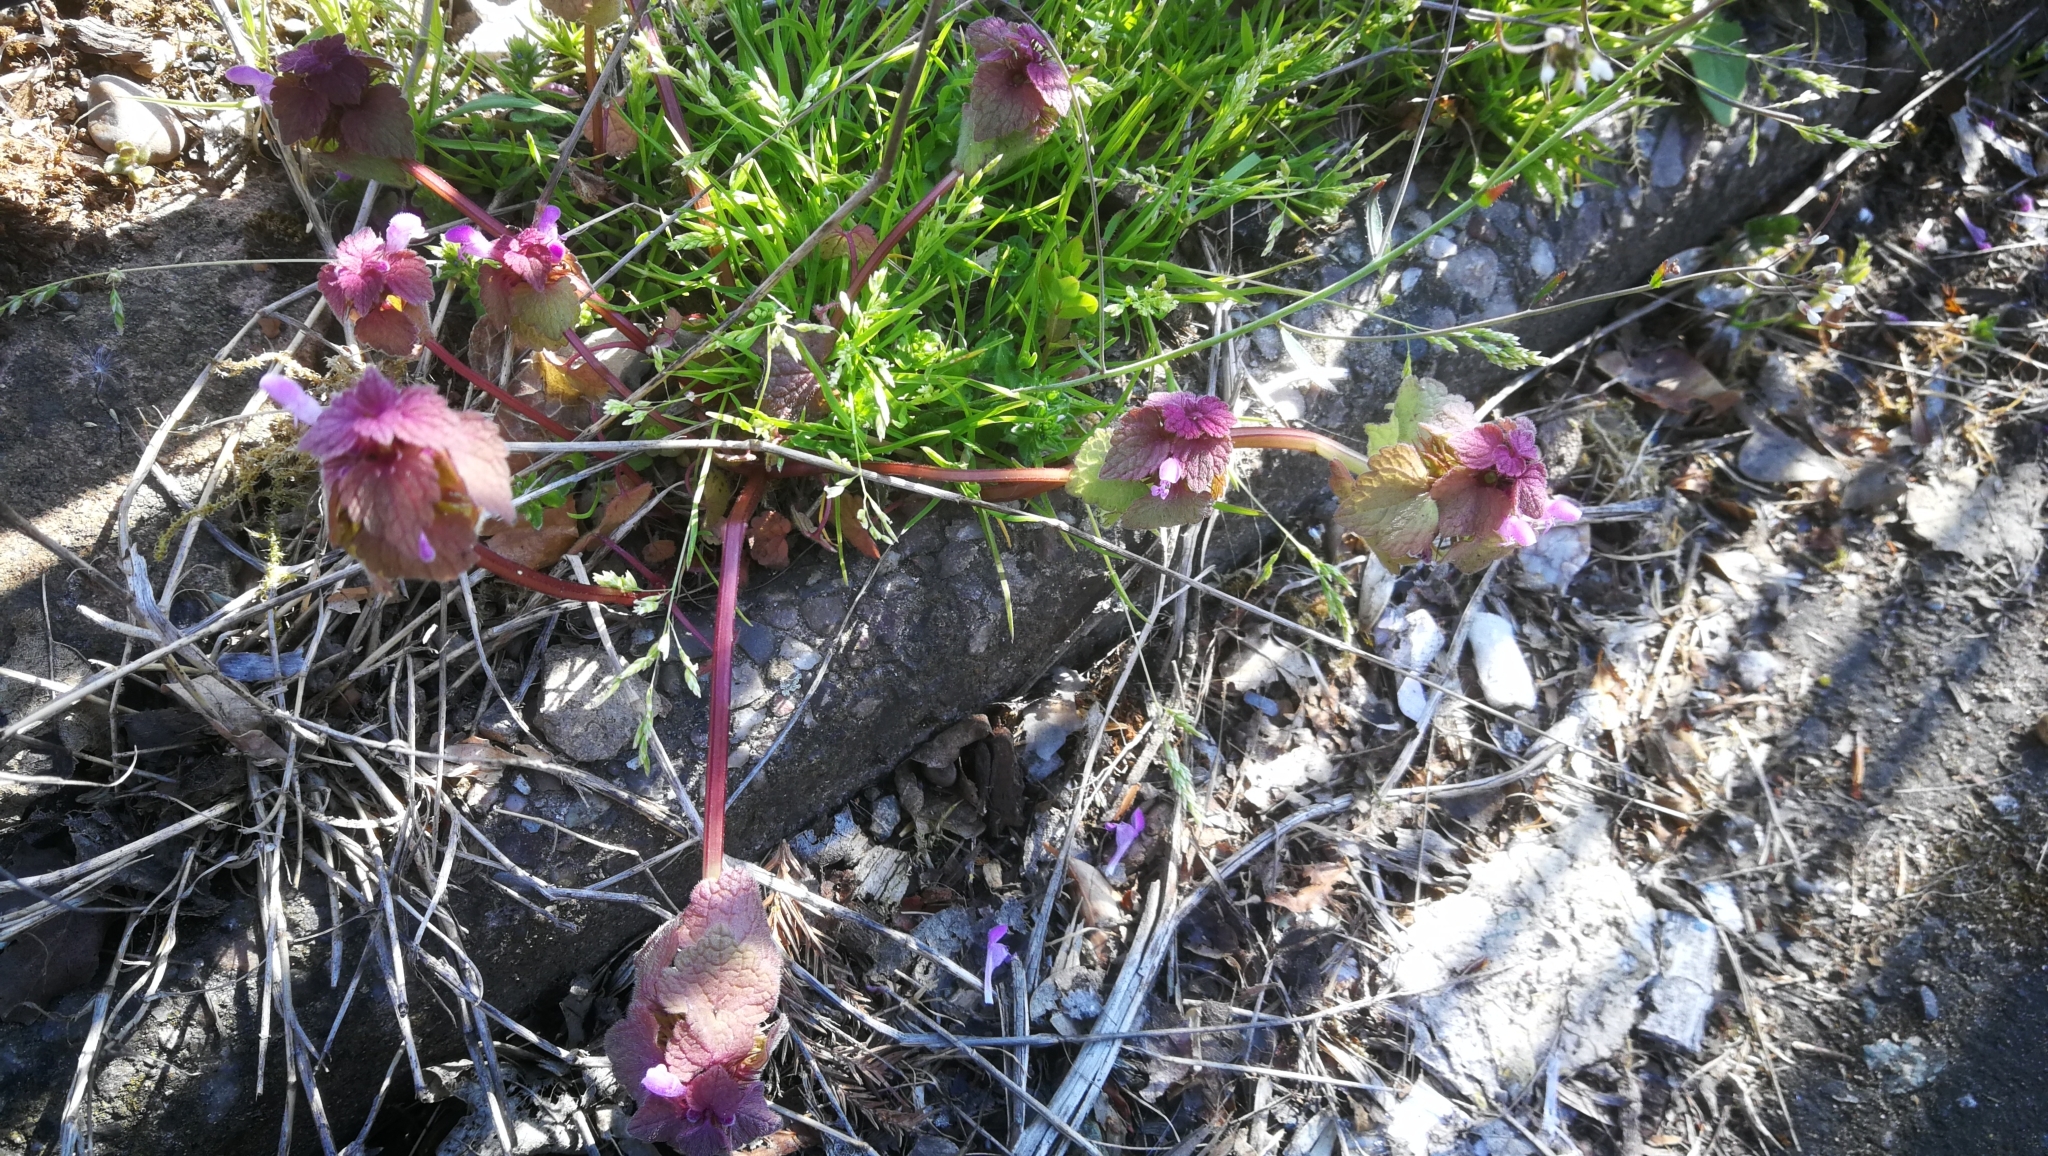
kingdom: Plantae
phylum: Tracheophyta
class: Magnoliopsida
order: Lamiales
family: Lamiaceae
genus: Lamium
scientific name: Lamium purpureum
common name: Red dead-nettle
